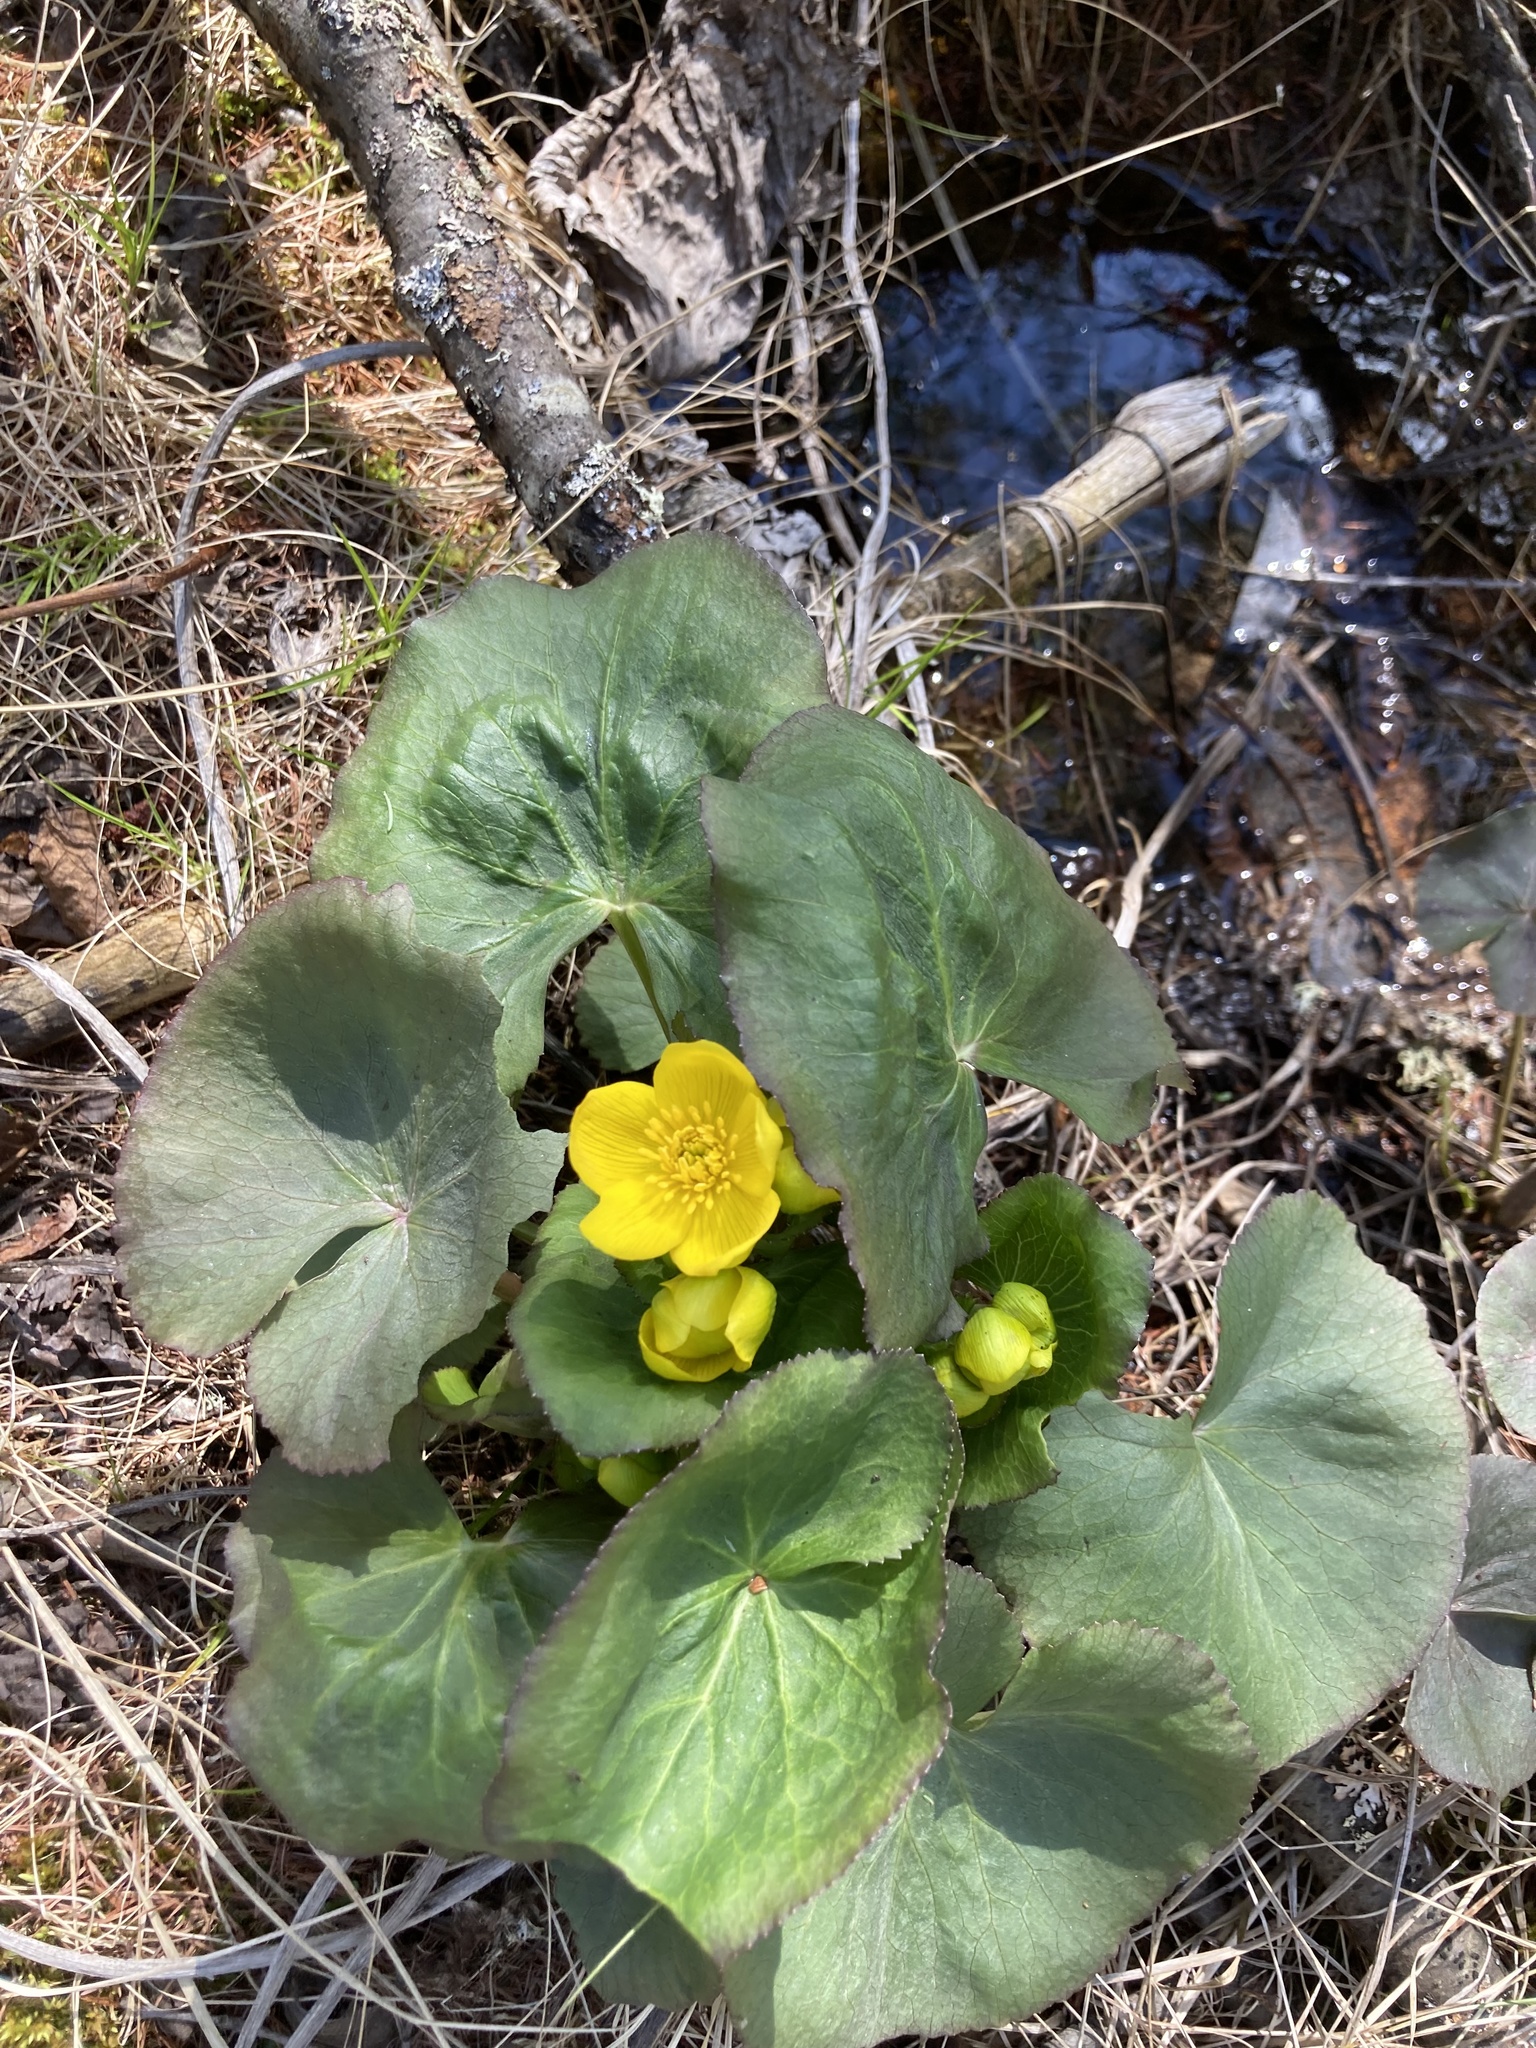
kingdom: Plantae
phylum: Tracheophyta
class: Magnoliopsida
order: Ranunculales
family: Ranunculaceae
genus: Caltha
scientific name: Caltha palustris
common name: Marsh marigold
